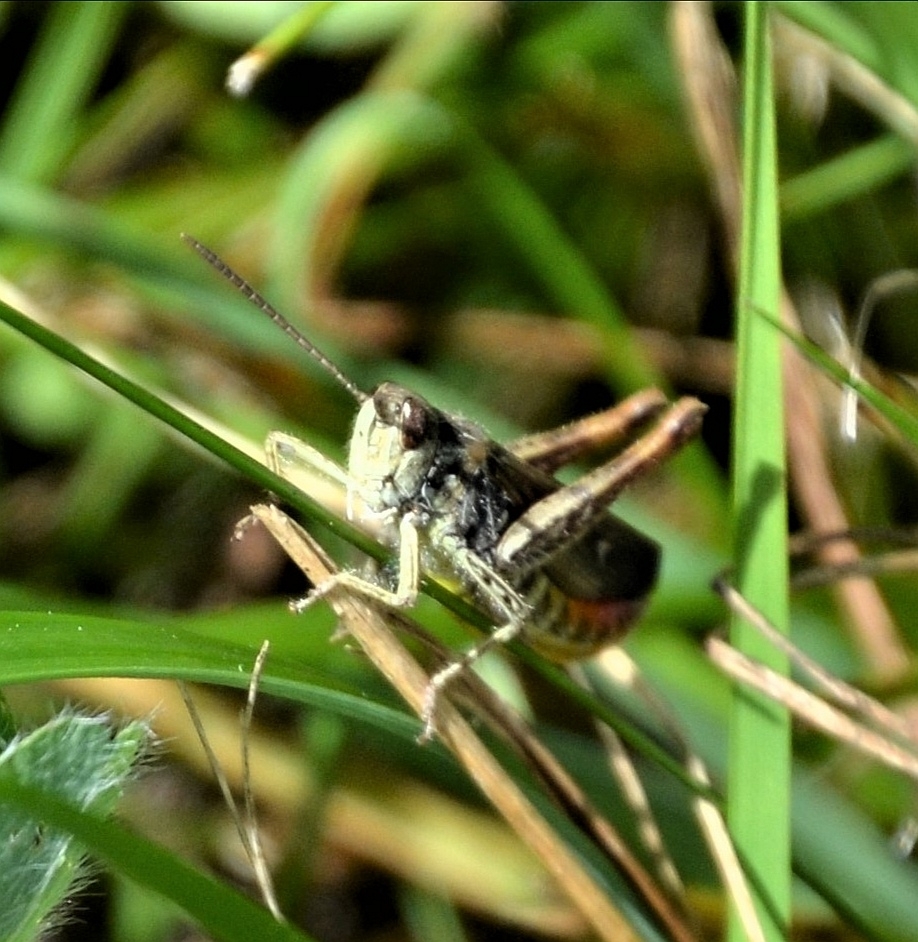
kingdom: Animalia
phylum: Arthropoda
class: Insecta
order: Orthoptera
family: Acrididae
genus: Chorthippus
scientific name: Chorthippus biguttulus
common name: Bow-winged grasshopper
